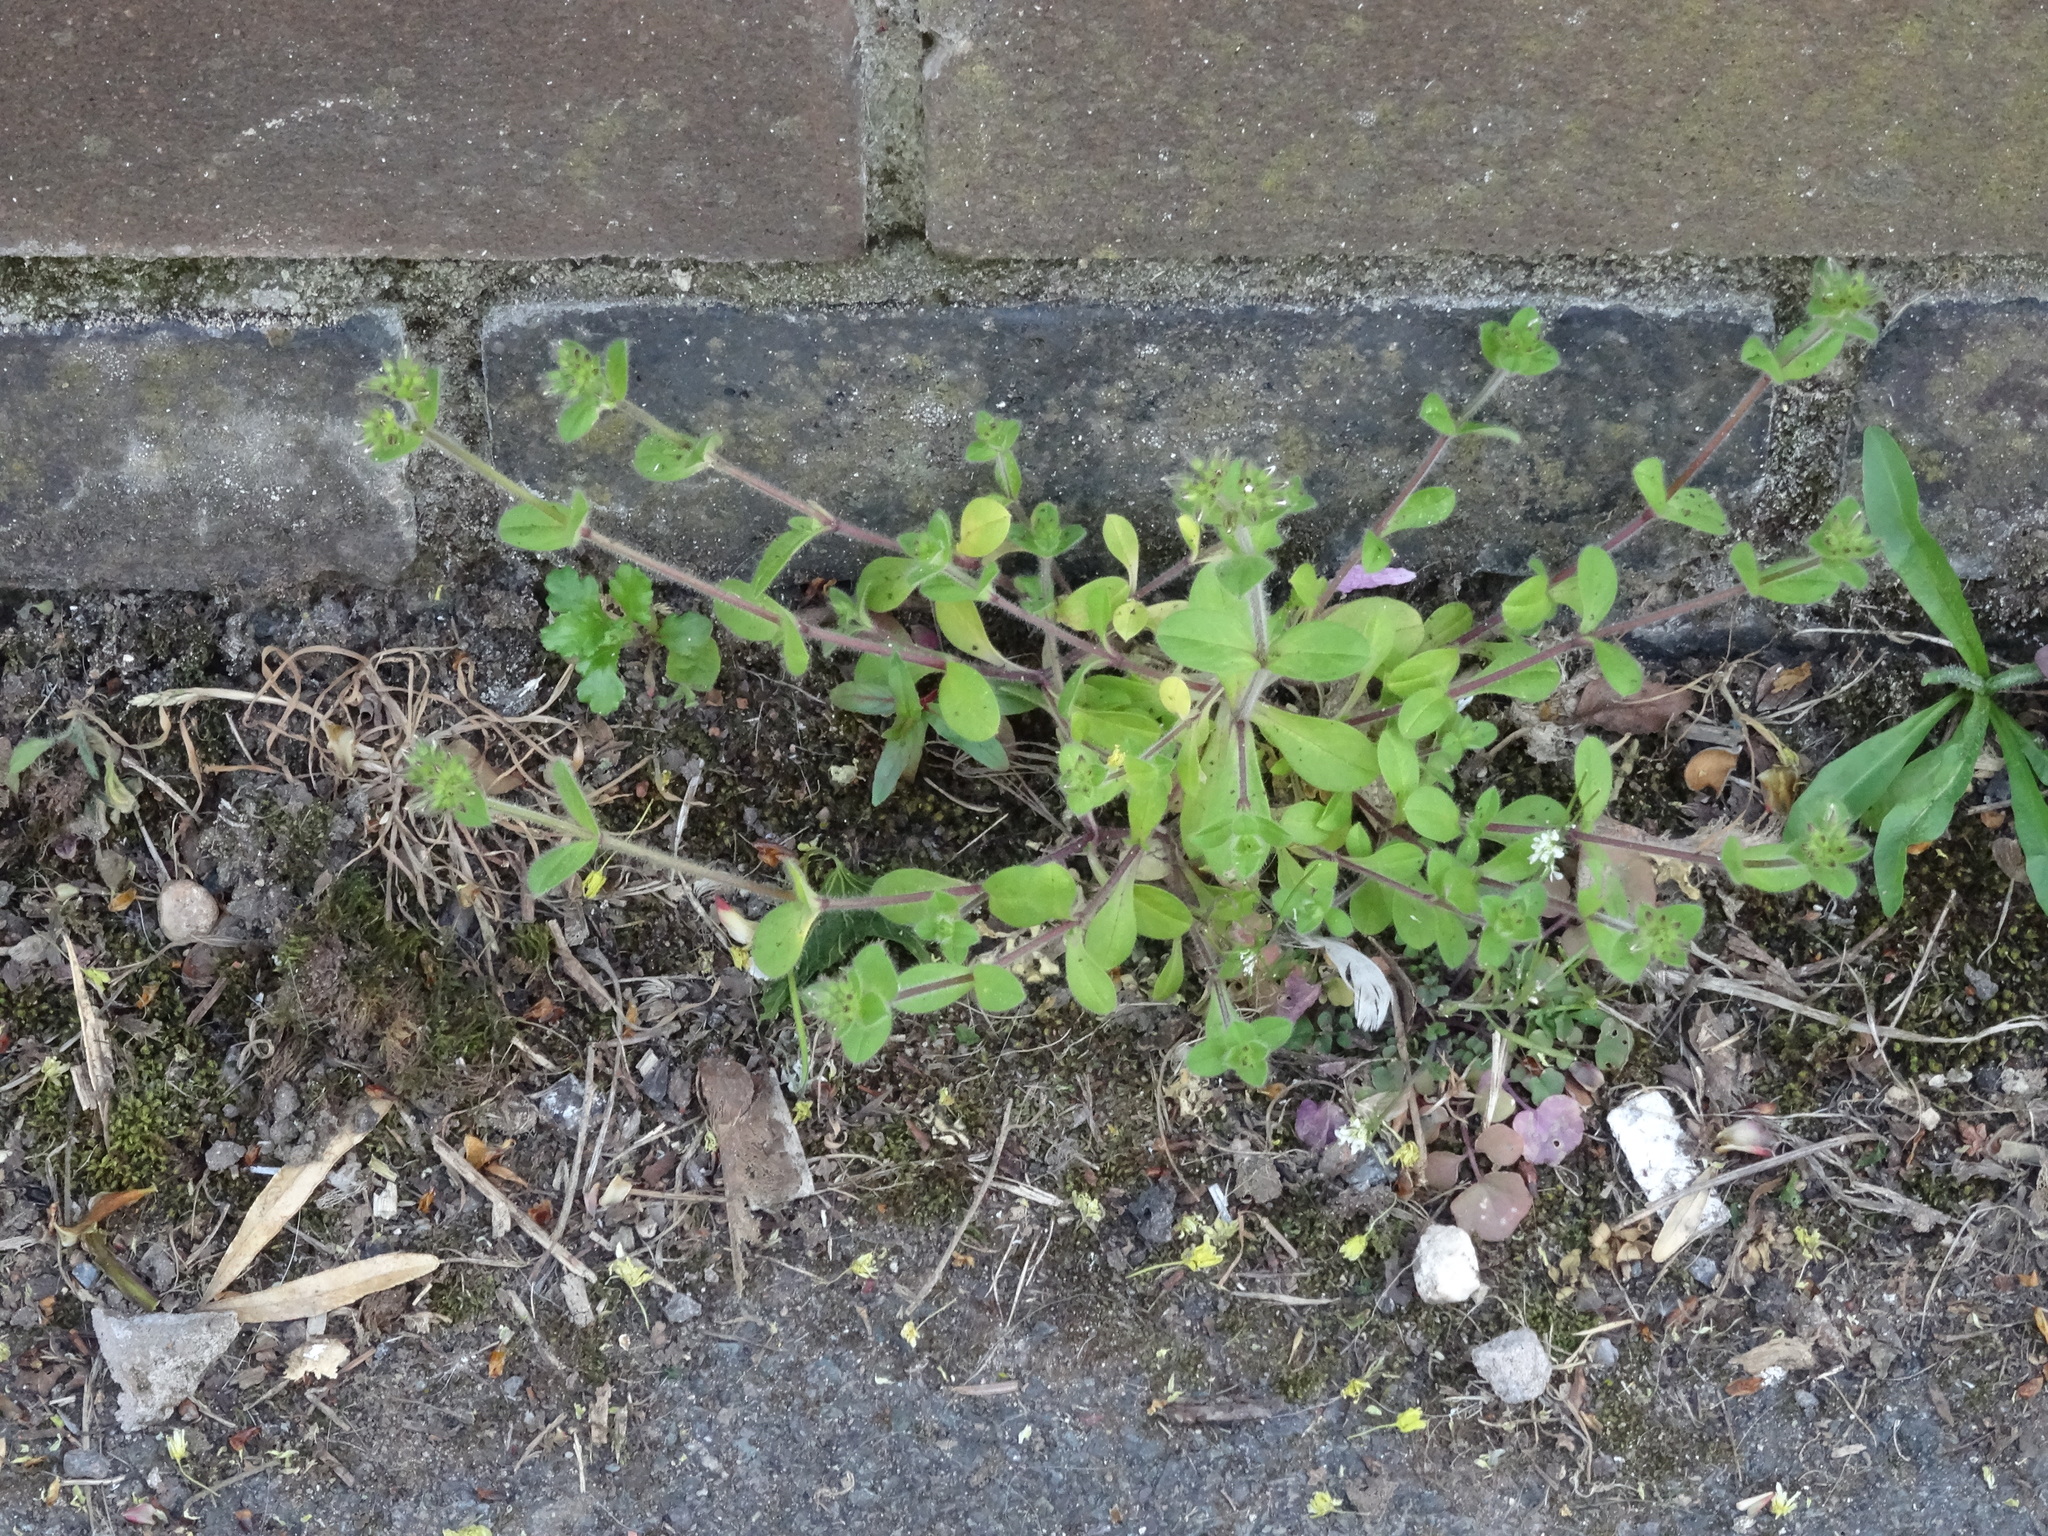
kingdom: Plantae
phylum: Tracheophyta
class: Magnoliopsida
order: Caryophyllales
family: Caryophyllaceae
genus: Cerastium
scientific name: Cerastium glomeratum
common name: Sticky chickweed
